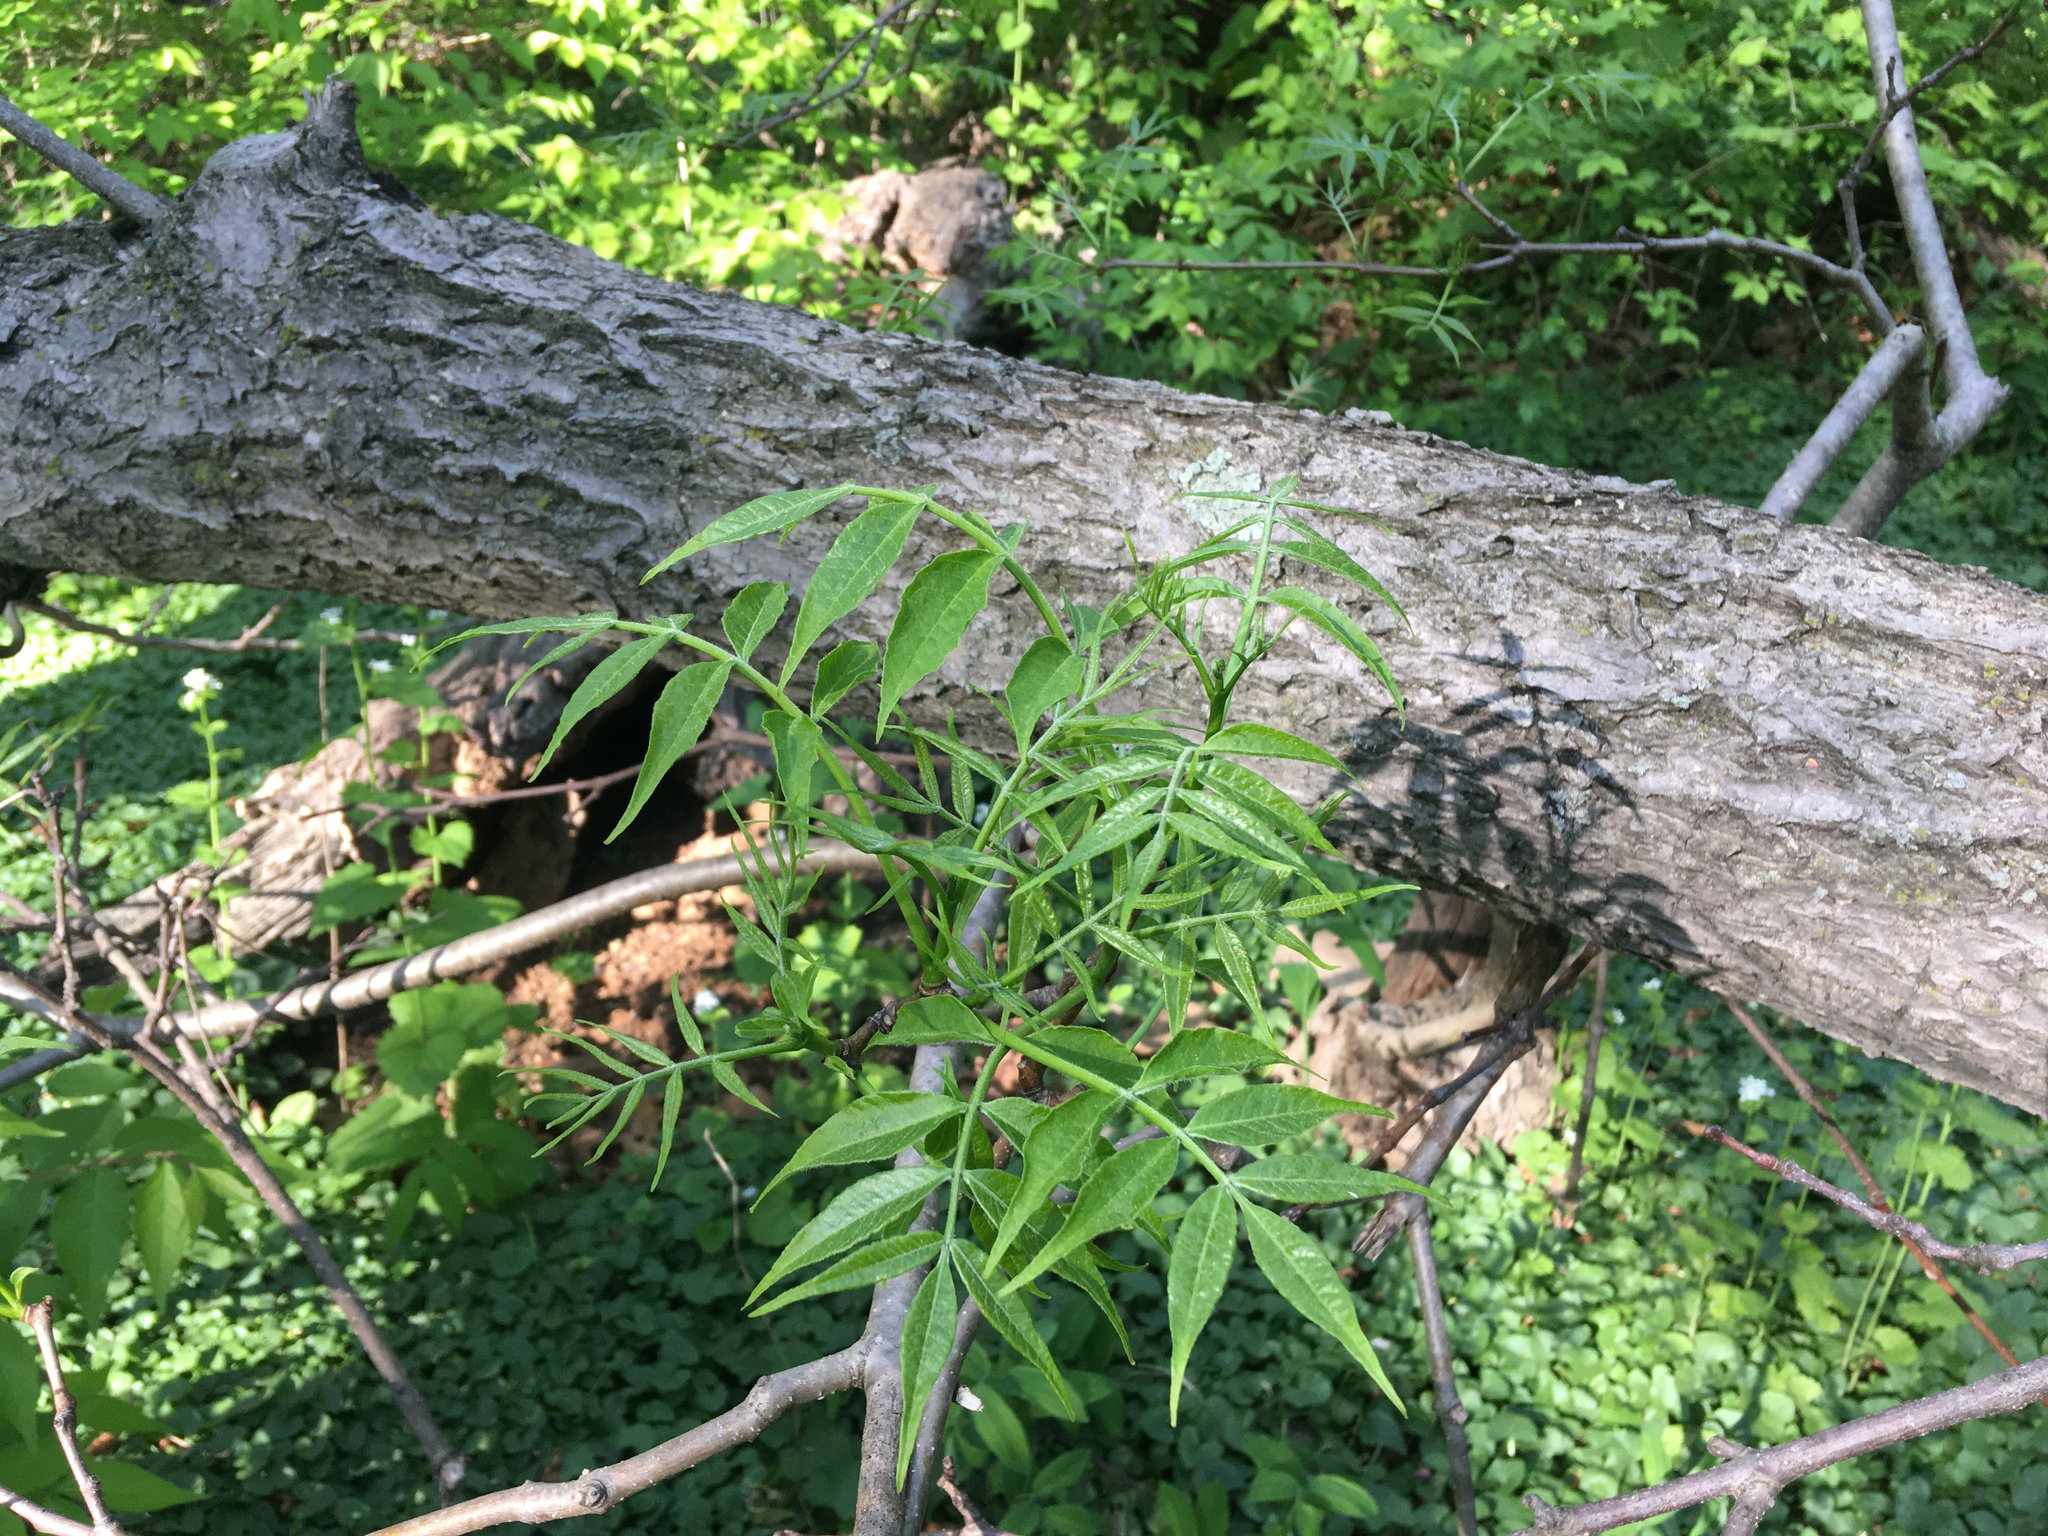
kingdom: Plantae
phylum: Tracheophyta
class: Magnoliopsida
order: Sapindales
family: Rutaceae
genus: Phellodendron
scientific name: Phellodendron amurense
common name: Amur corktree
